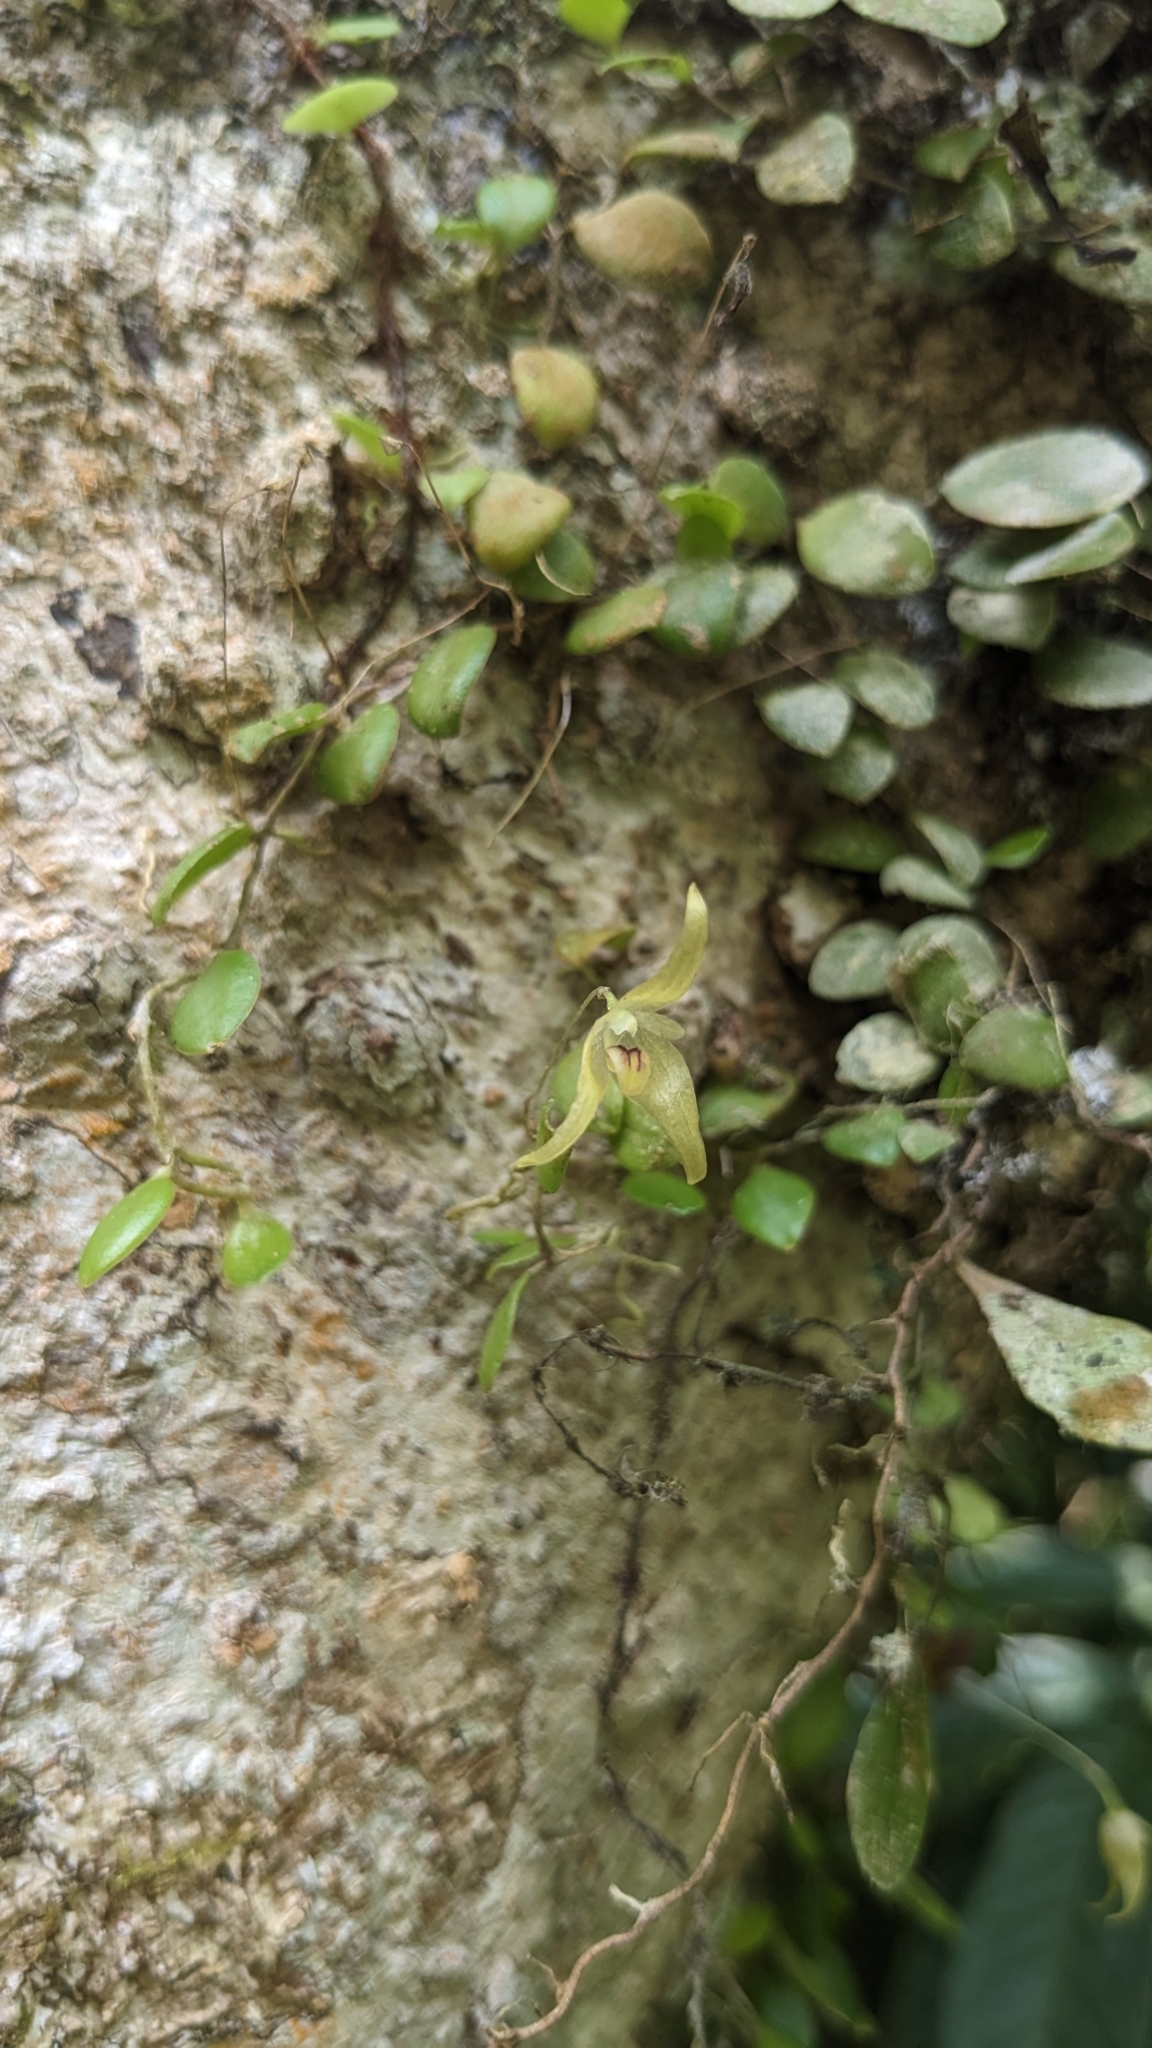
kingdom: Plantae
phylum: Tracheophyta
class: Liliopsida
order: Asparagales
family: Orchidaceae
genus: Bulbophyllum
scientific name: Bulbophyllum drymoglossum
